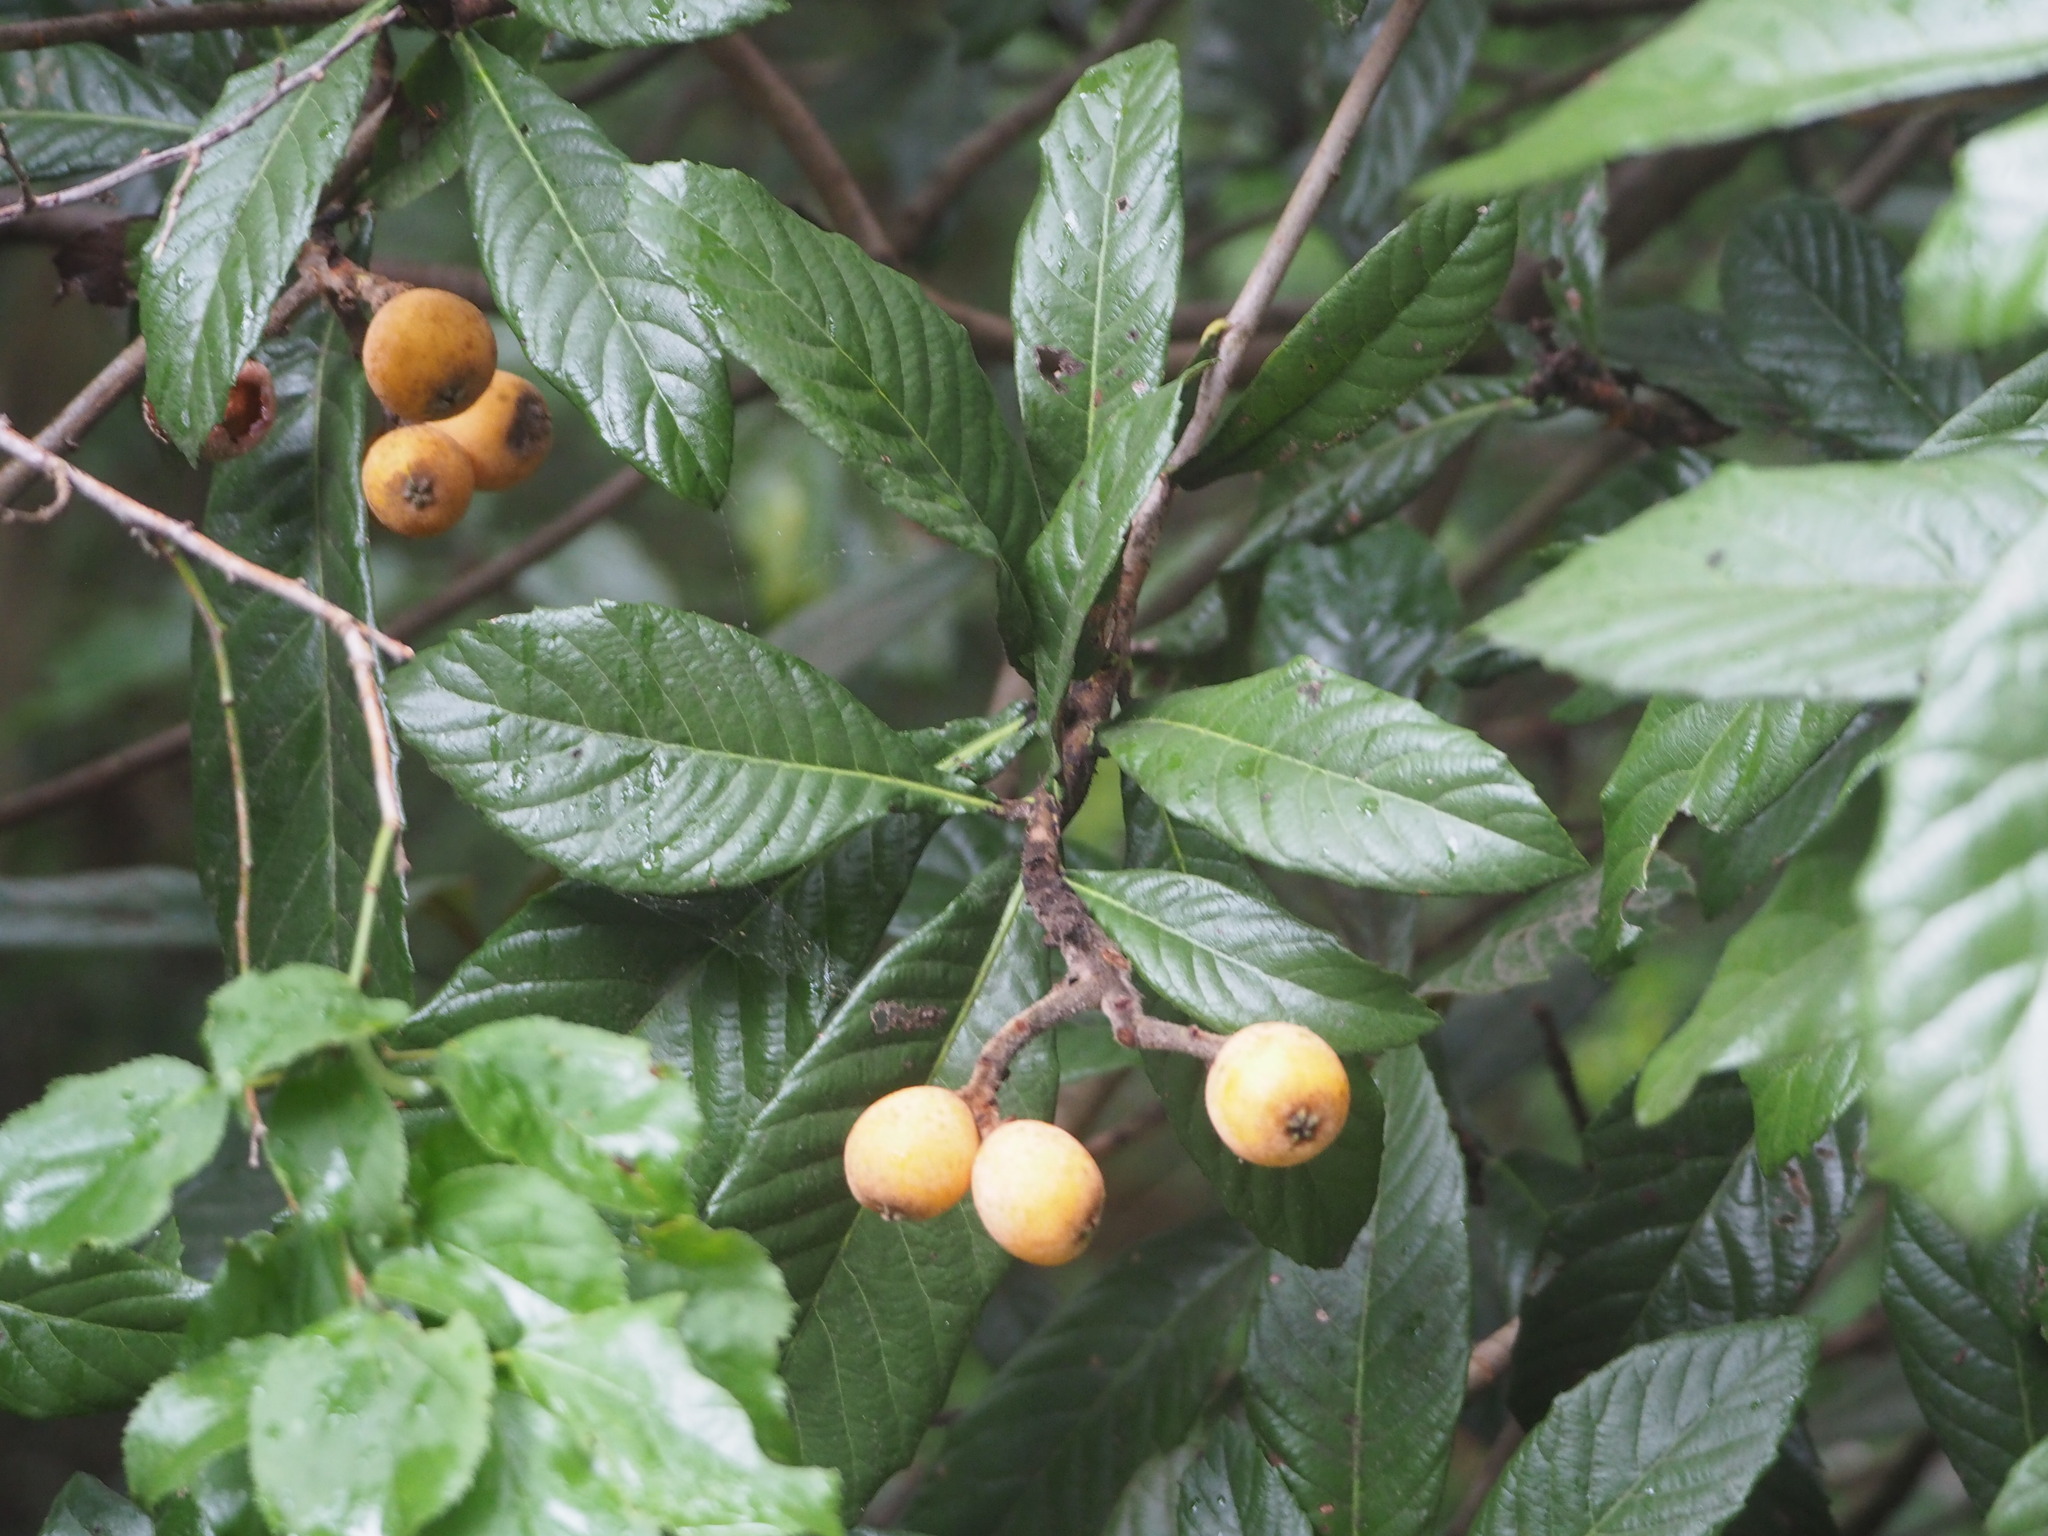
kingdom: Plantae
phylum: Tracheophyta
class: Magnoliopsida
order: Rosales
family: Rosaceae
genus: Rhaphiolepis
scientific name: Rhaphiolepis bibas
